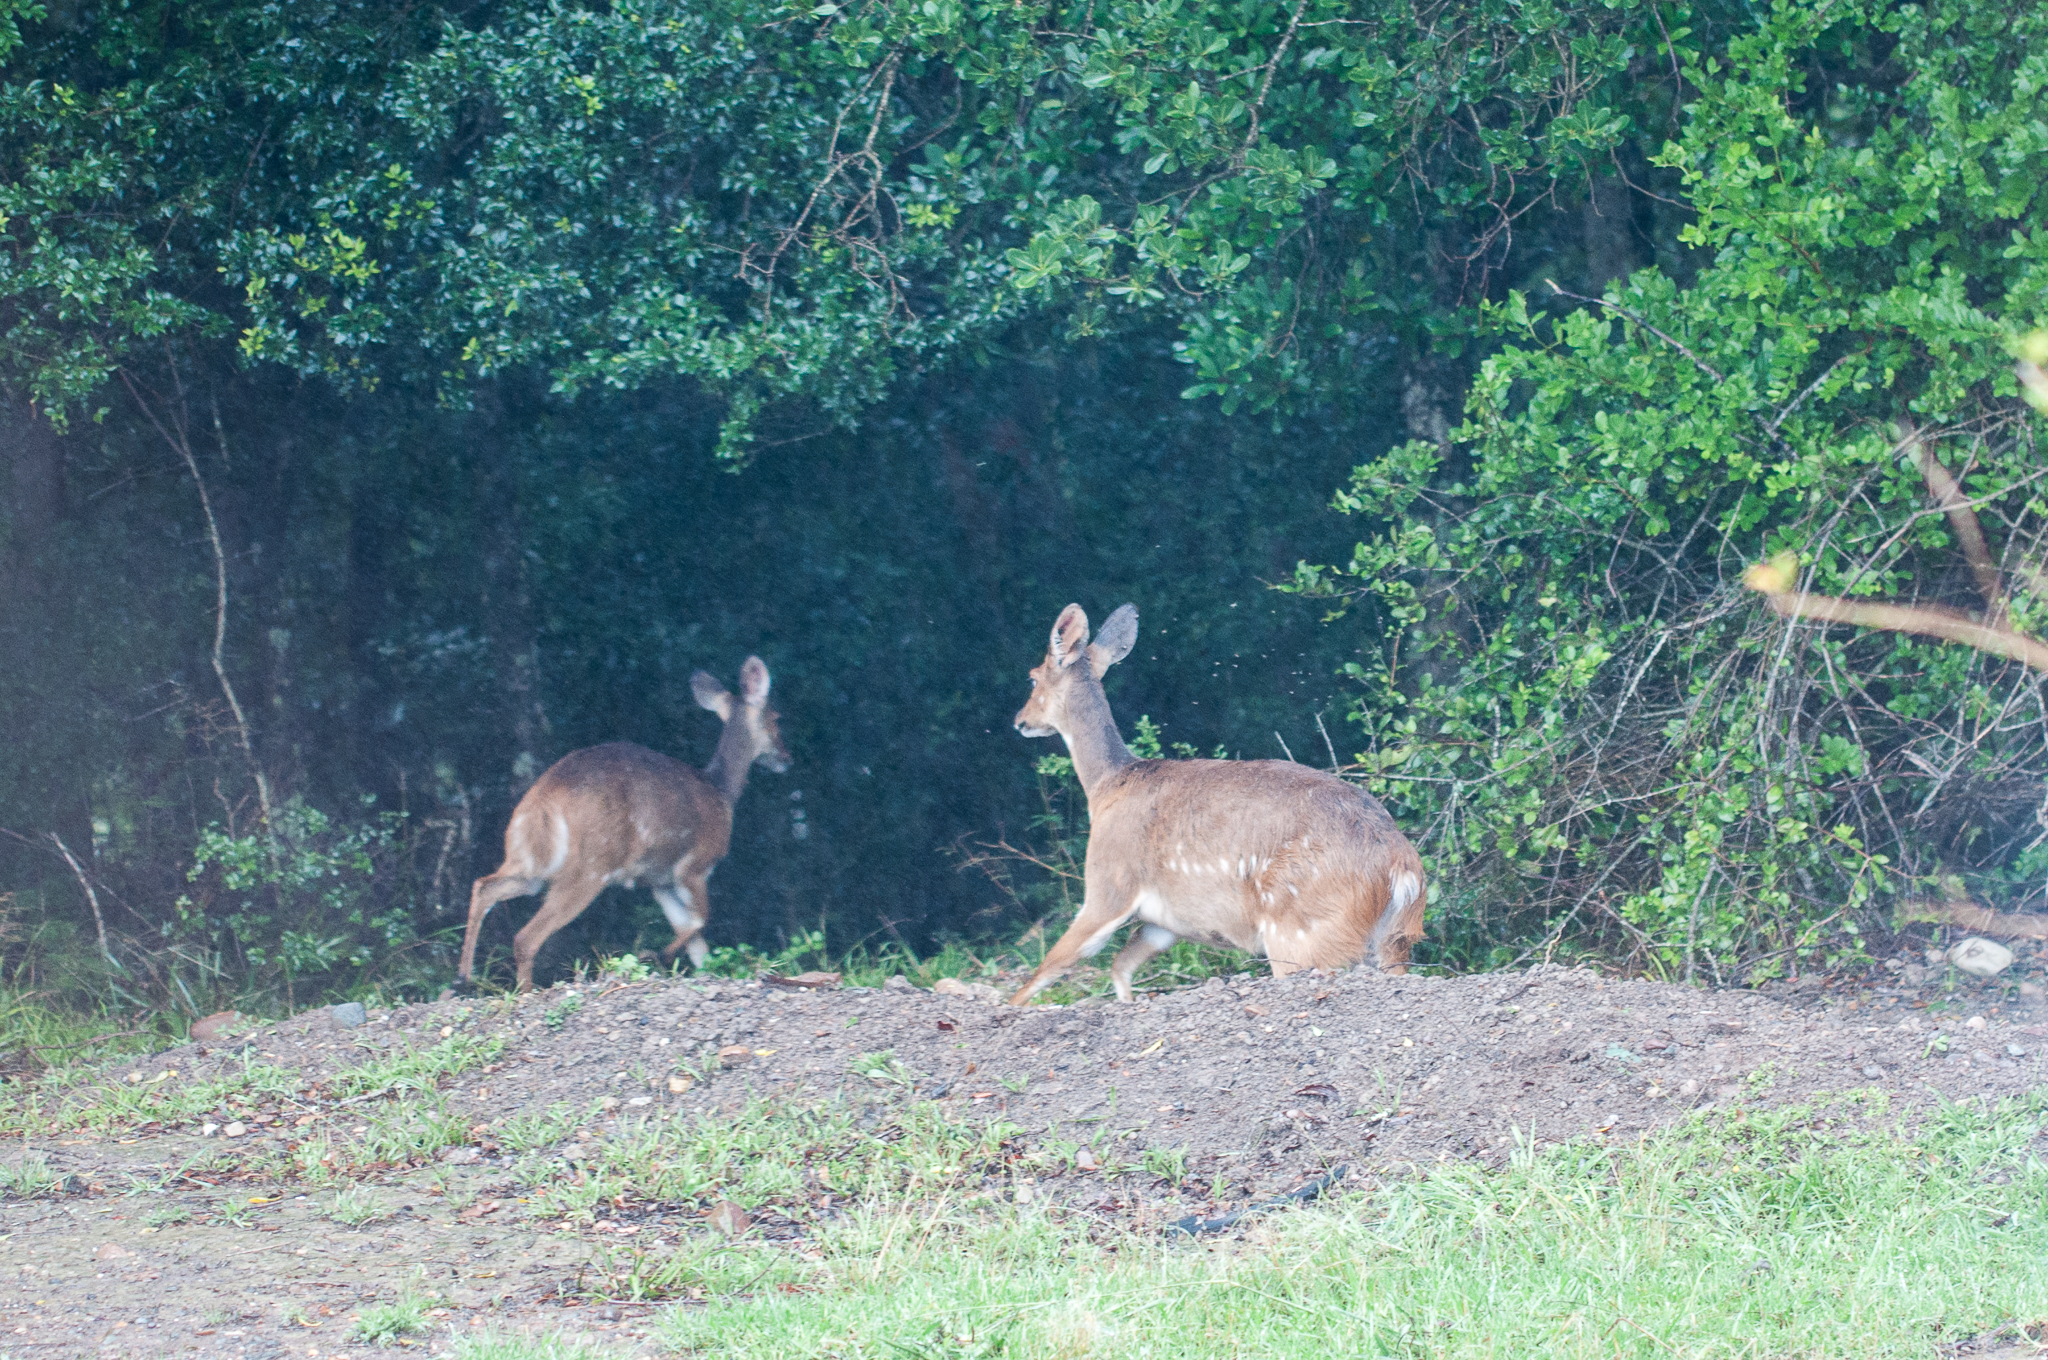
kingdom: Animalia
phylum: Chordata
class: Mammalia
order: Artiodactyla
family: Bovidae
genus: Tragelaphus
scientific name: Tragelaphus scriptus
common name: Bushbuck
